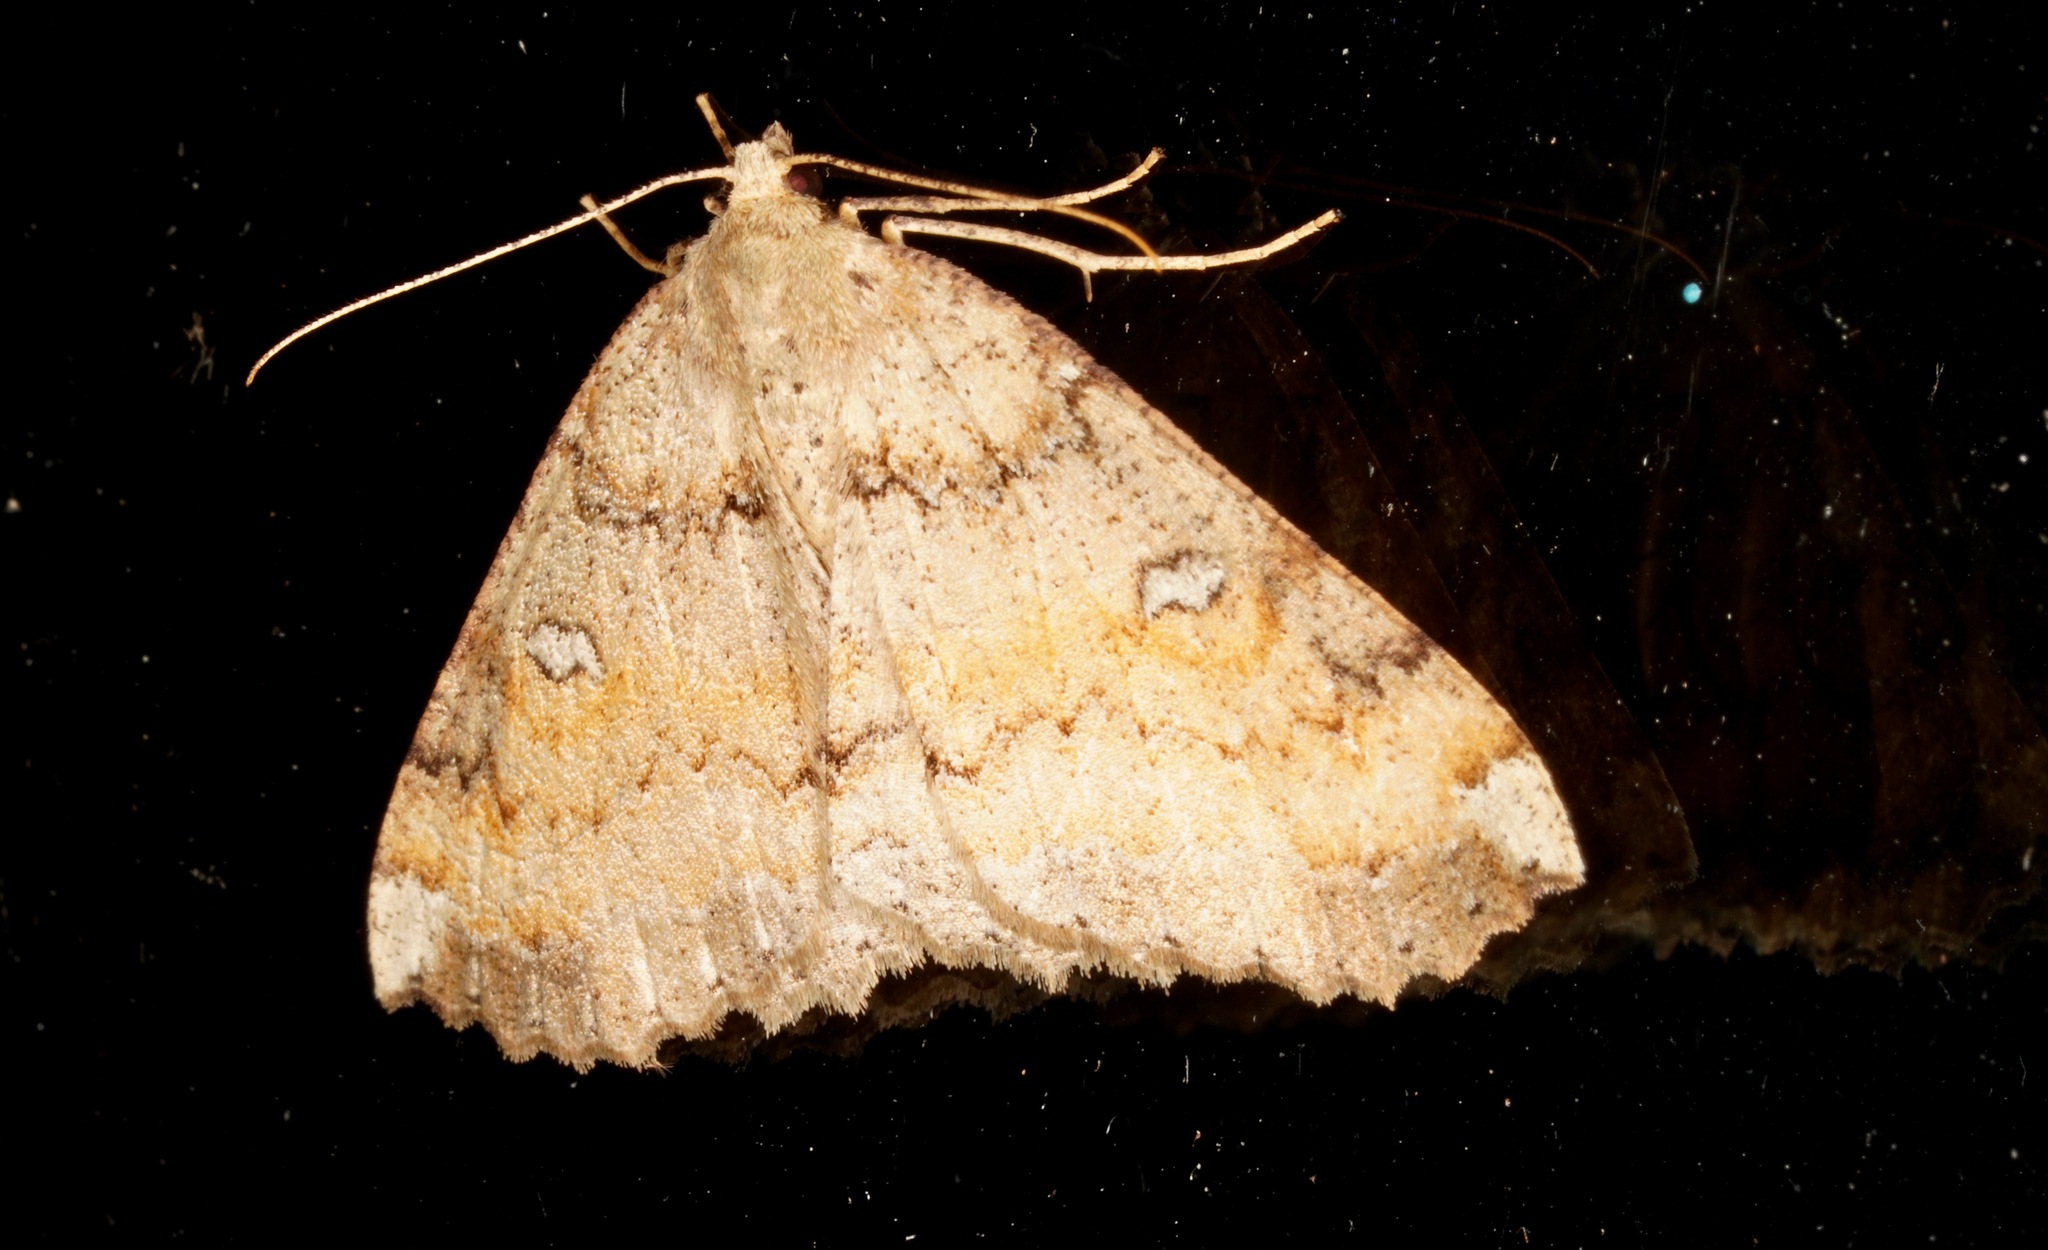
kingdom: Animalia
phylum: Arthropoda
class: Insecta
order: Lepidoptera
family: Geometridae
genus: Cleora
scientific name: Cleora scriptaria
